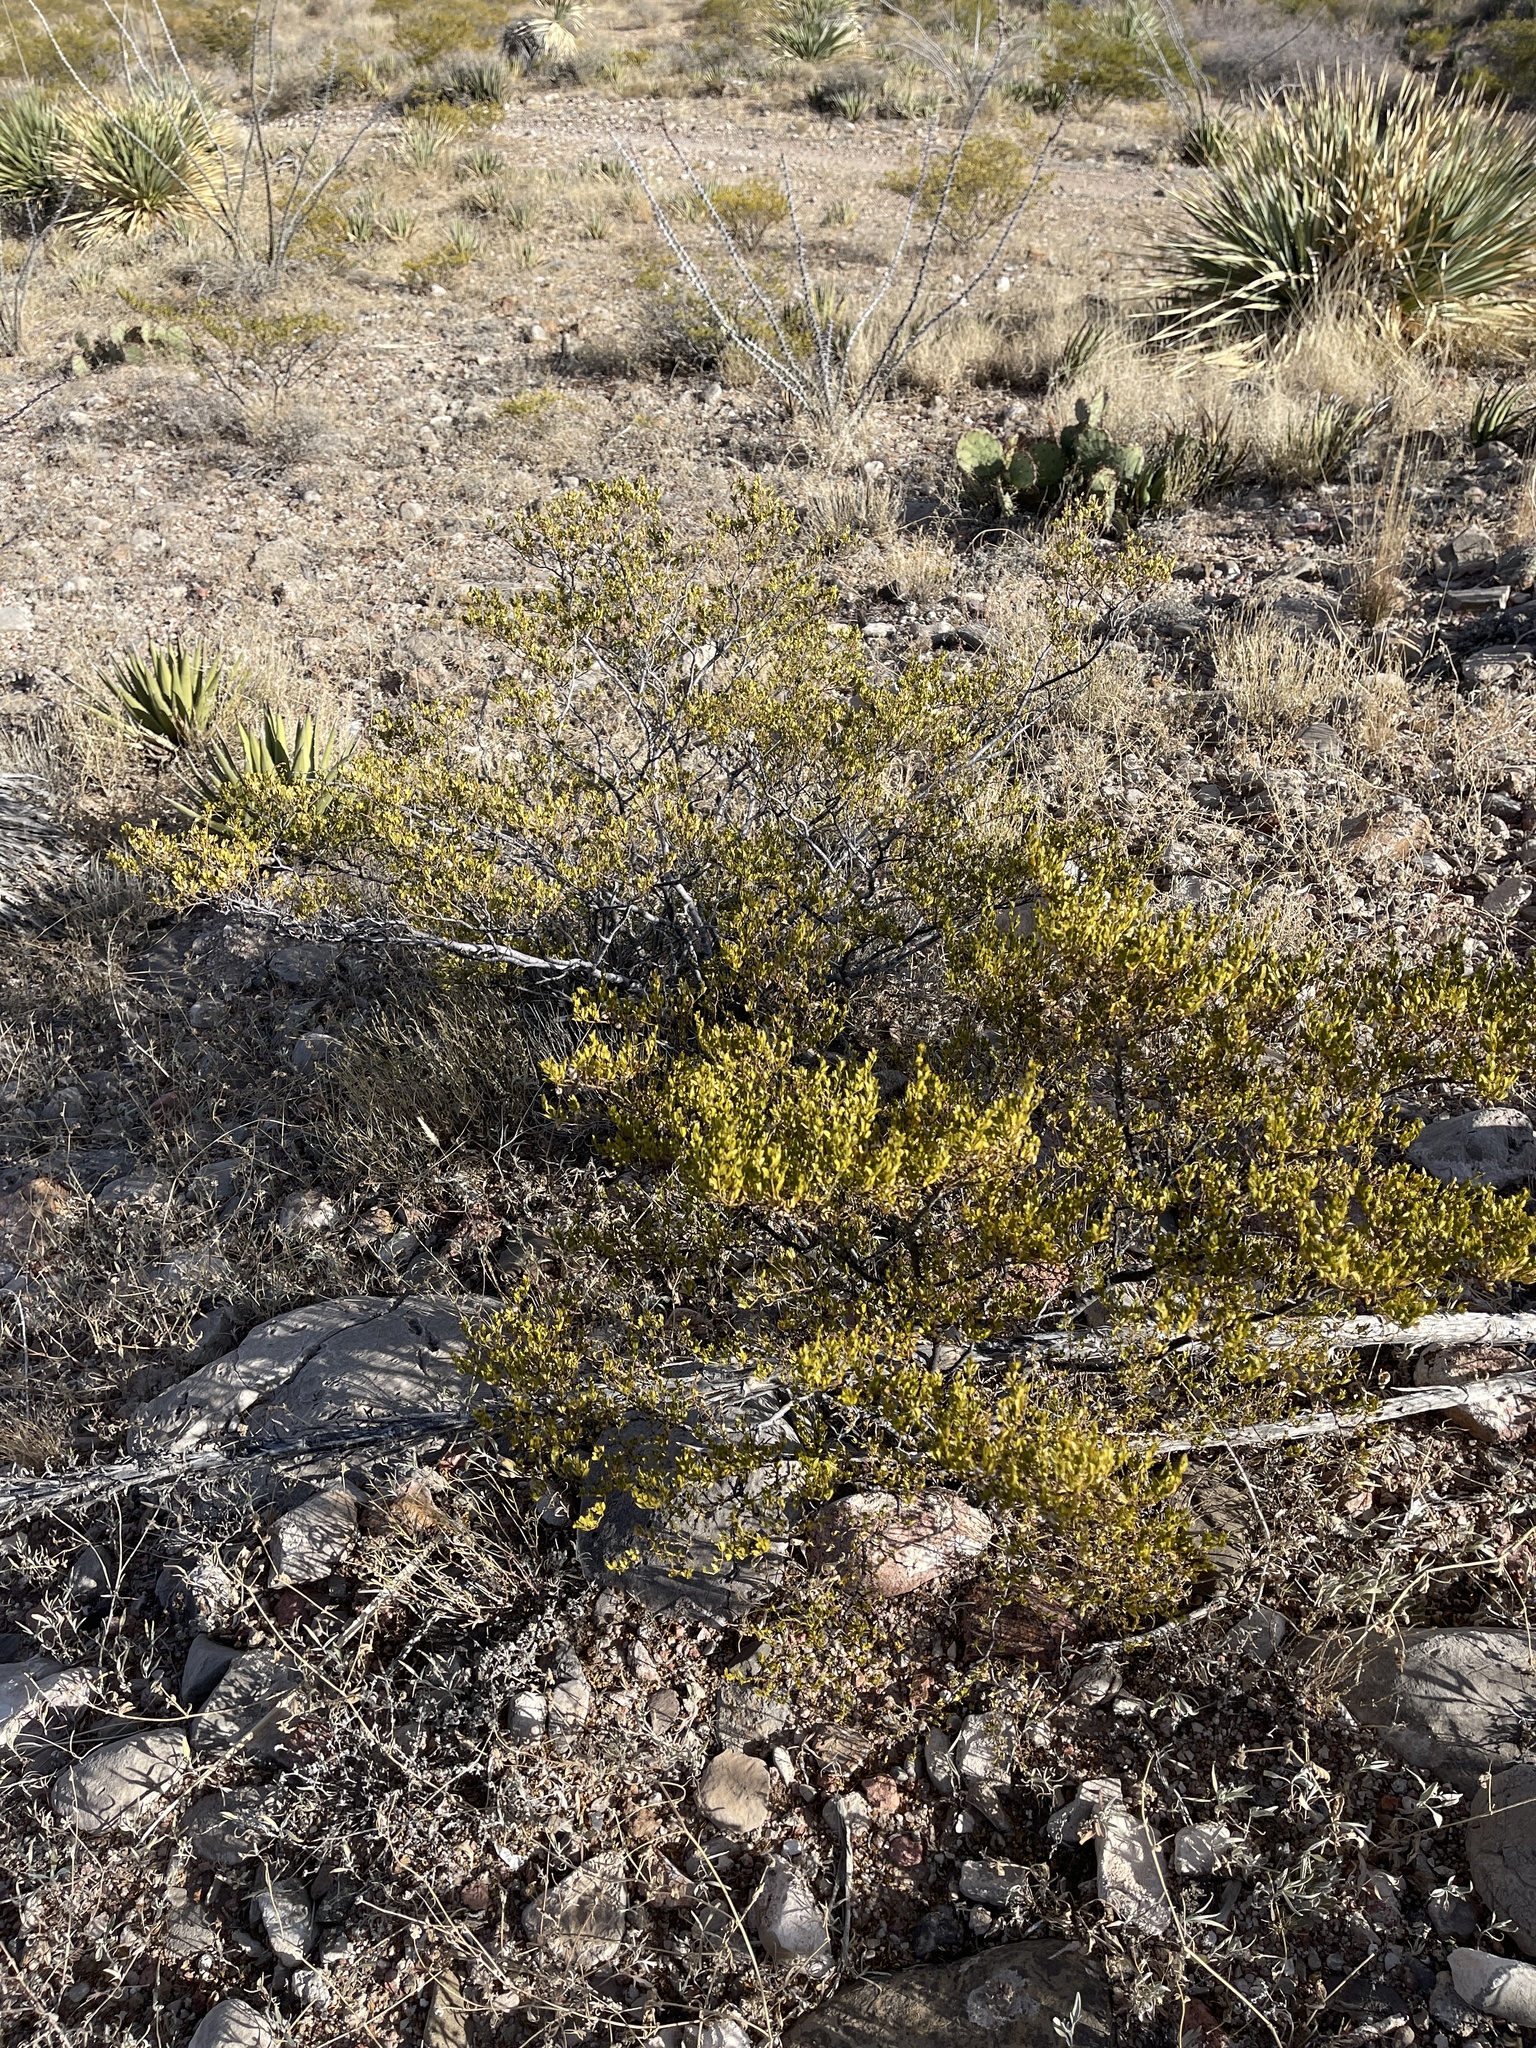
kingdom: Plantae
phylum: Tracheophyta
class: Magnoliopsida
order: Zygophyllales
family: Zygophyllaceae
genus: Larrea
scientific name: Larrea tridentata
